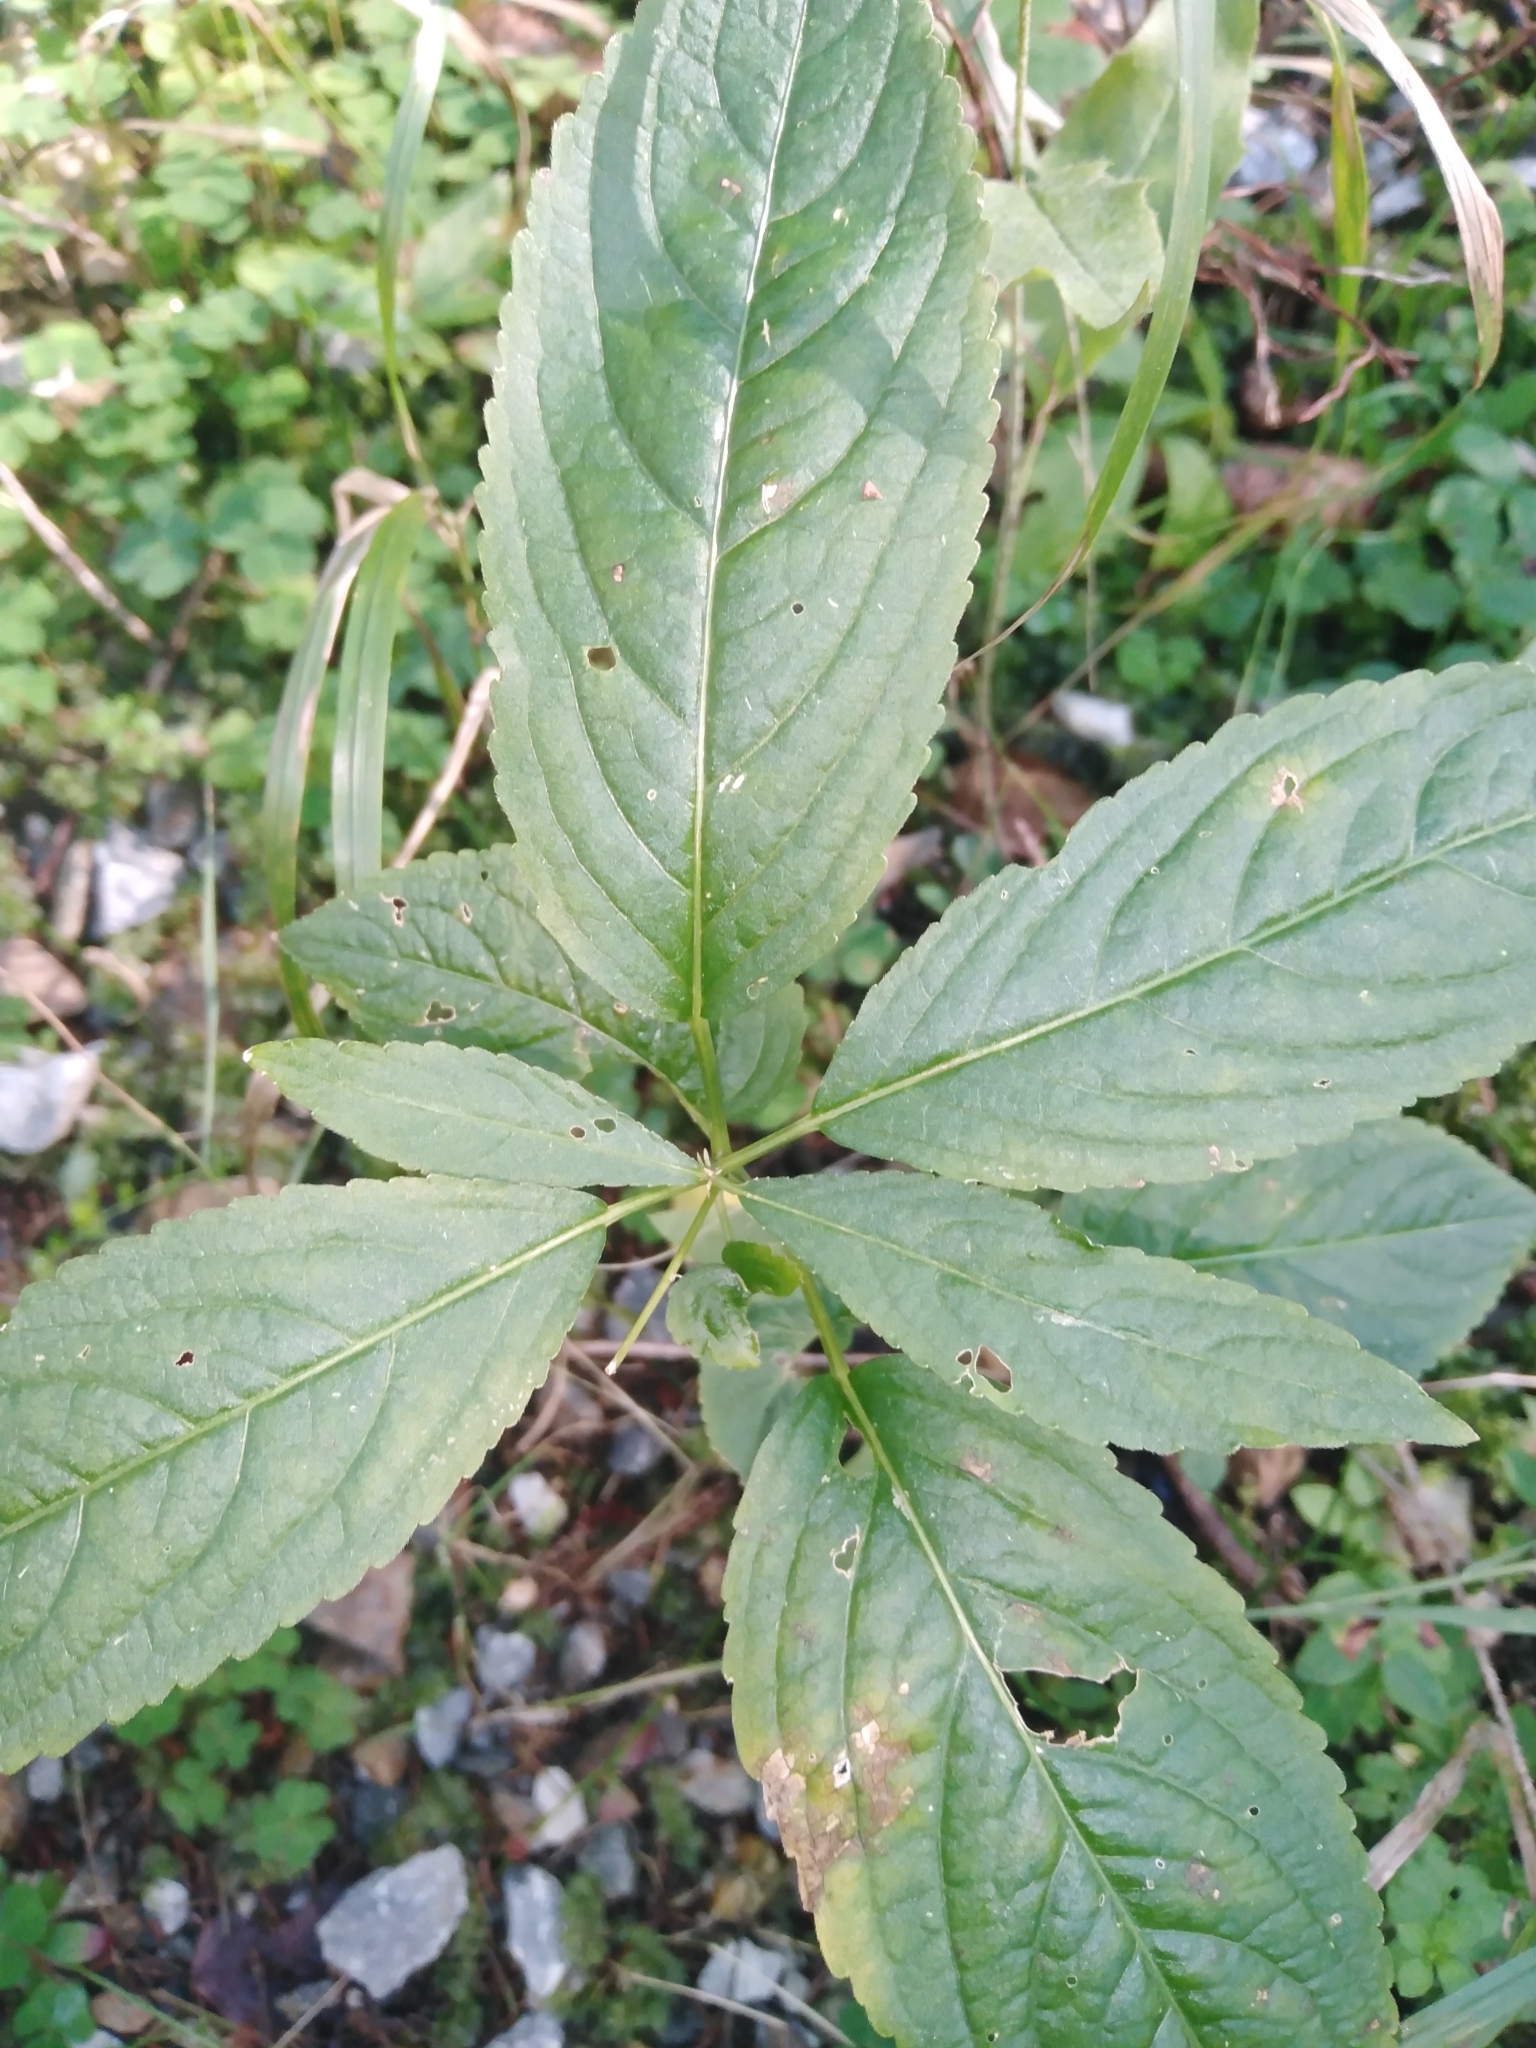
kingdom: Plantae
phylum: Tracheophyta
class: Magnoliopsida
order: Malpighiales
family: Euphorbiaceae
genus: Mercurialis
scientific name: Mercurialis perennis
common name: Dog mercury
